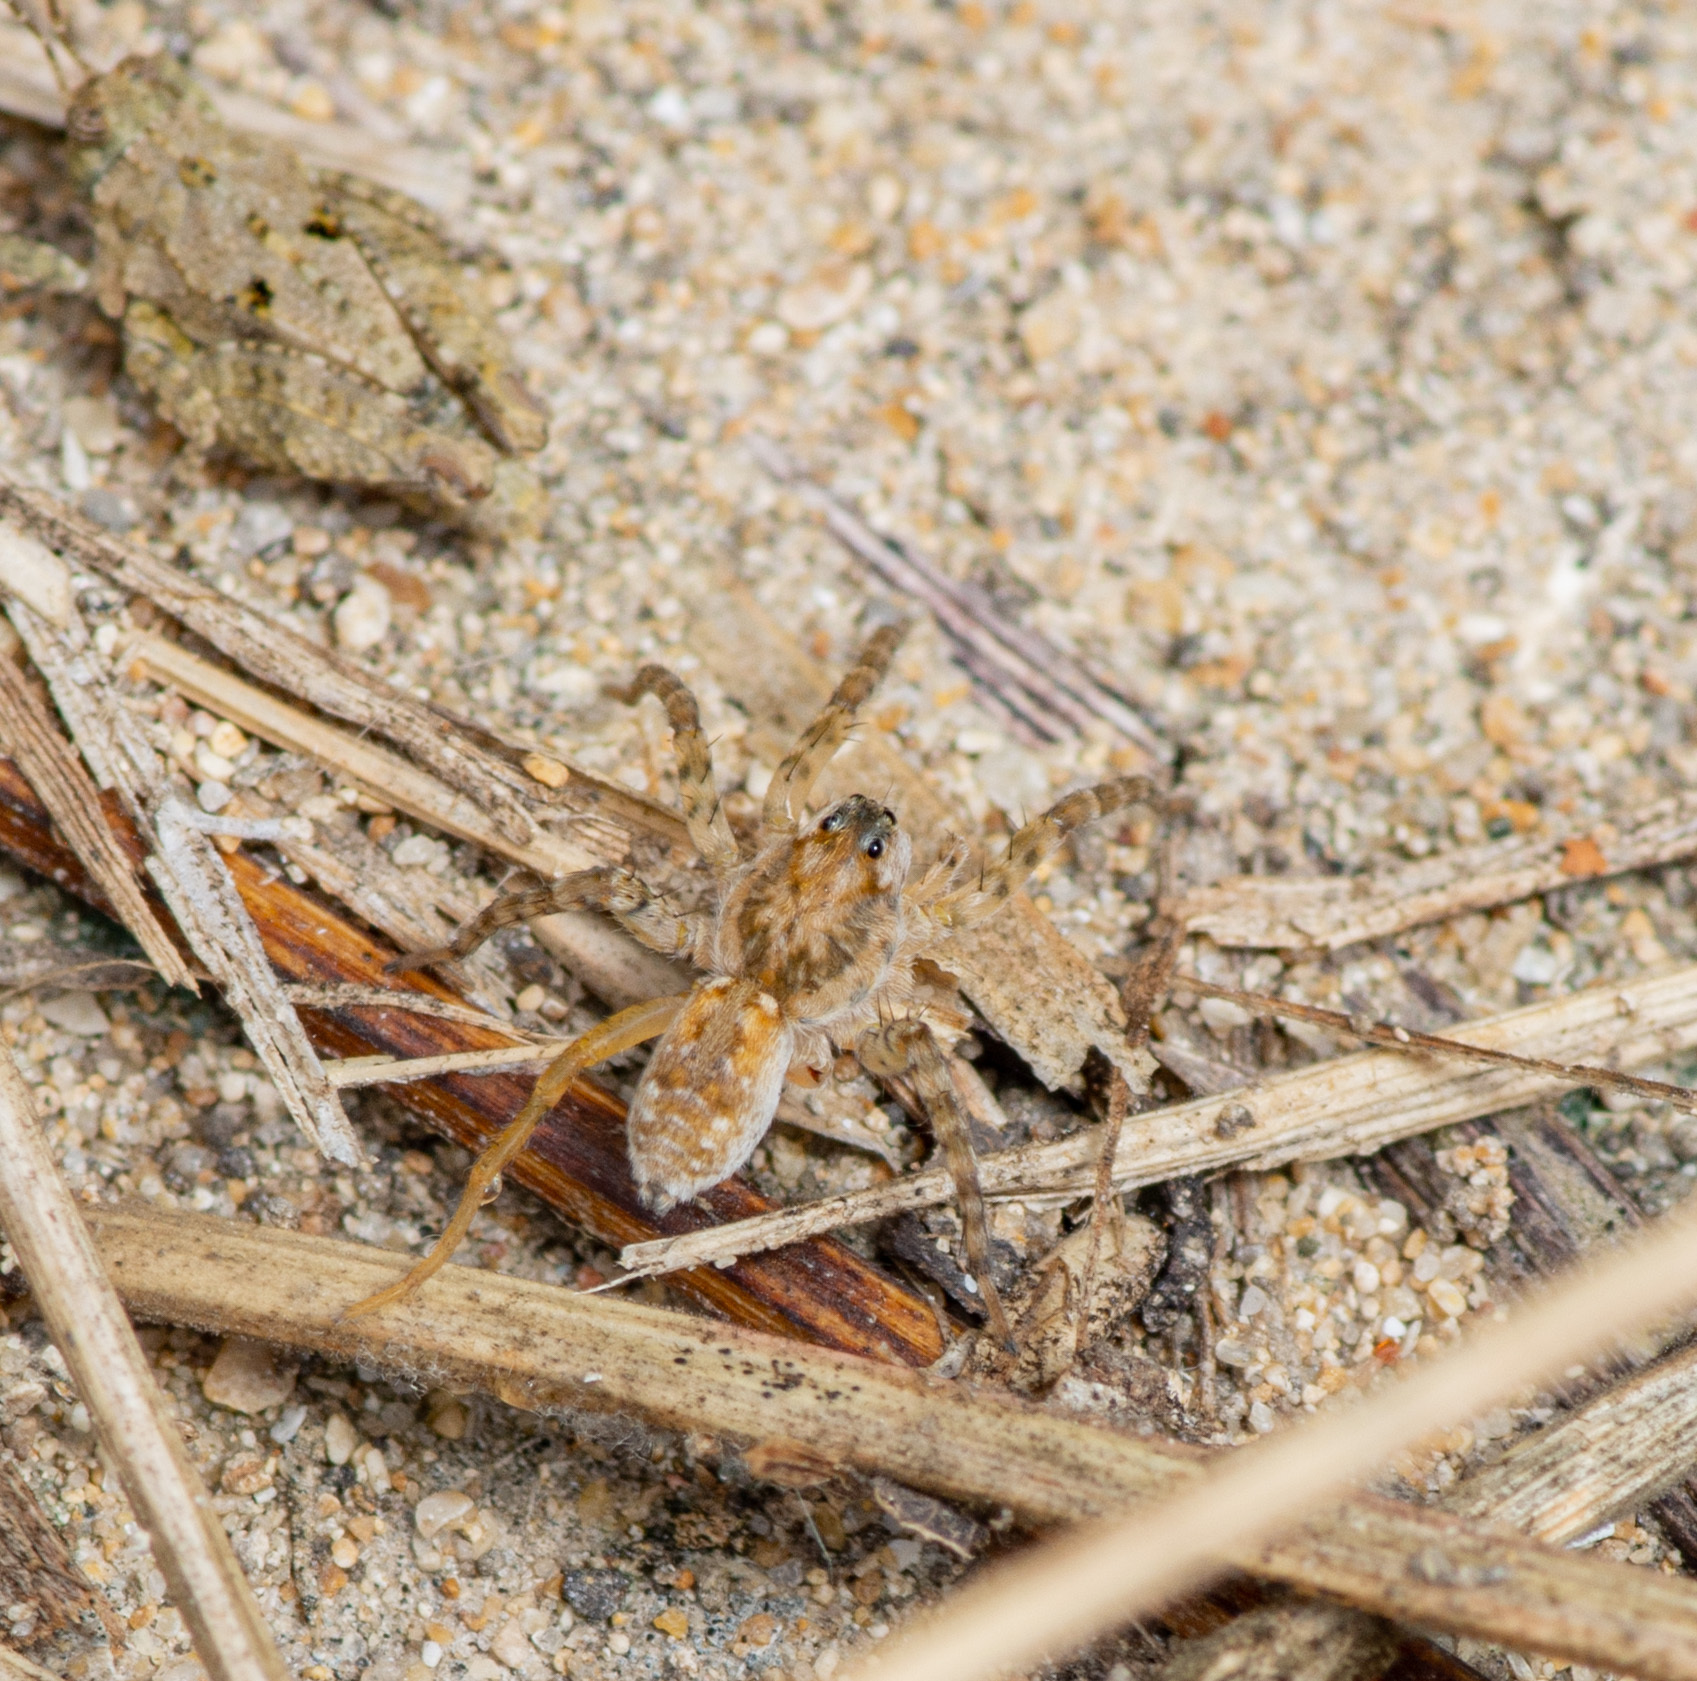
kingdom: Animalia
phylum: Arthropoda
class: Arachnida
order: Araneae
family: Lycosidae
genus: Arctosa
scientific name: Arctosa littoralis
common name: Wolf spiders
